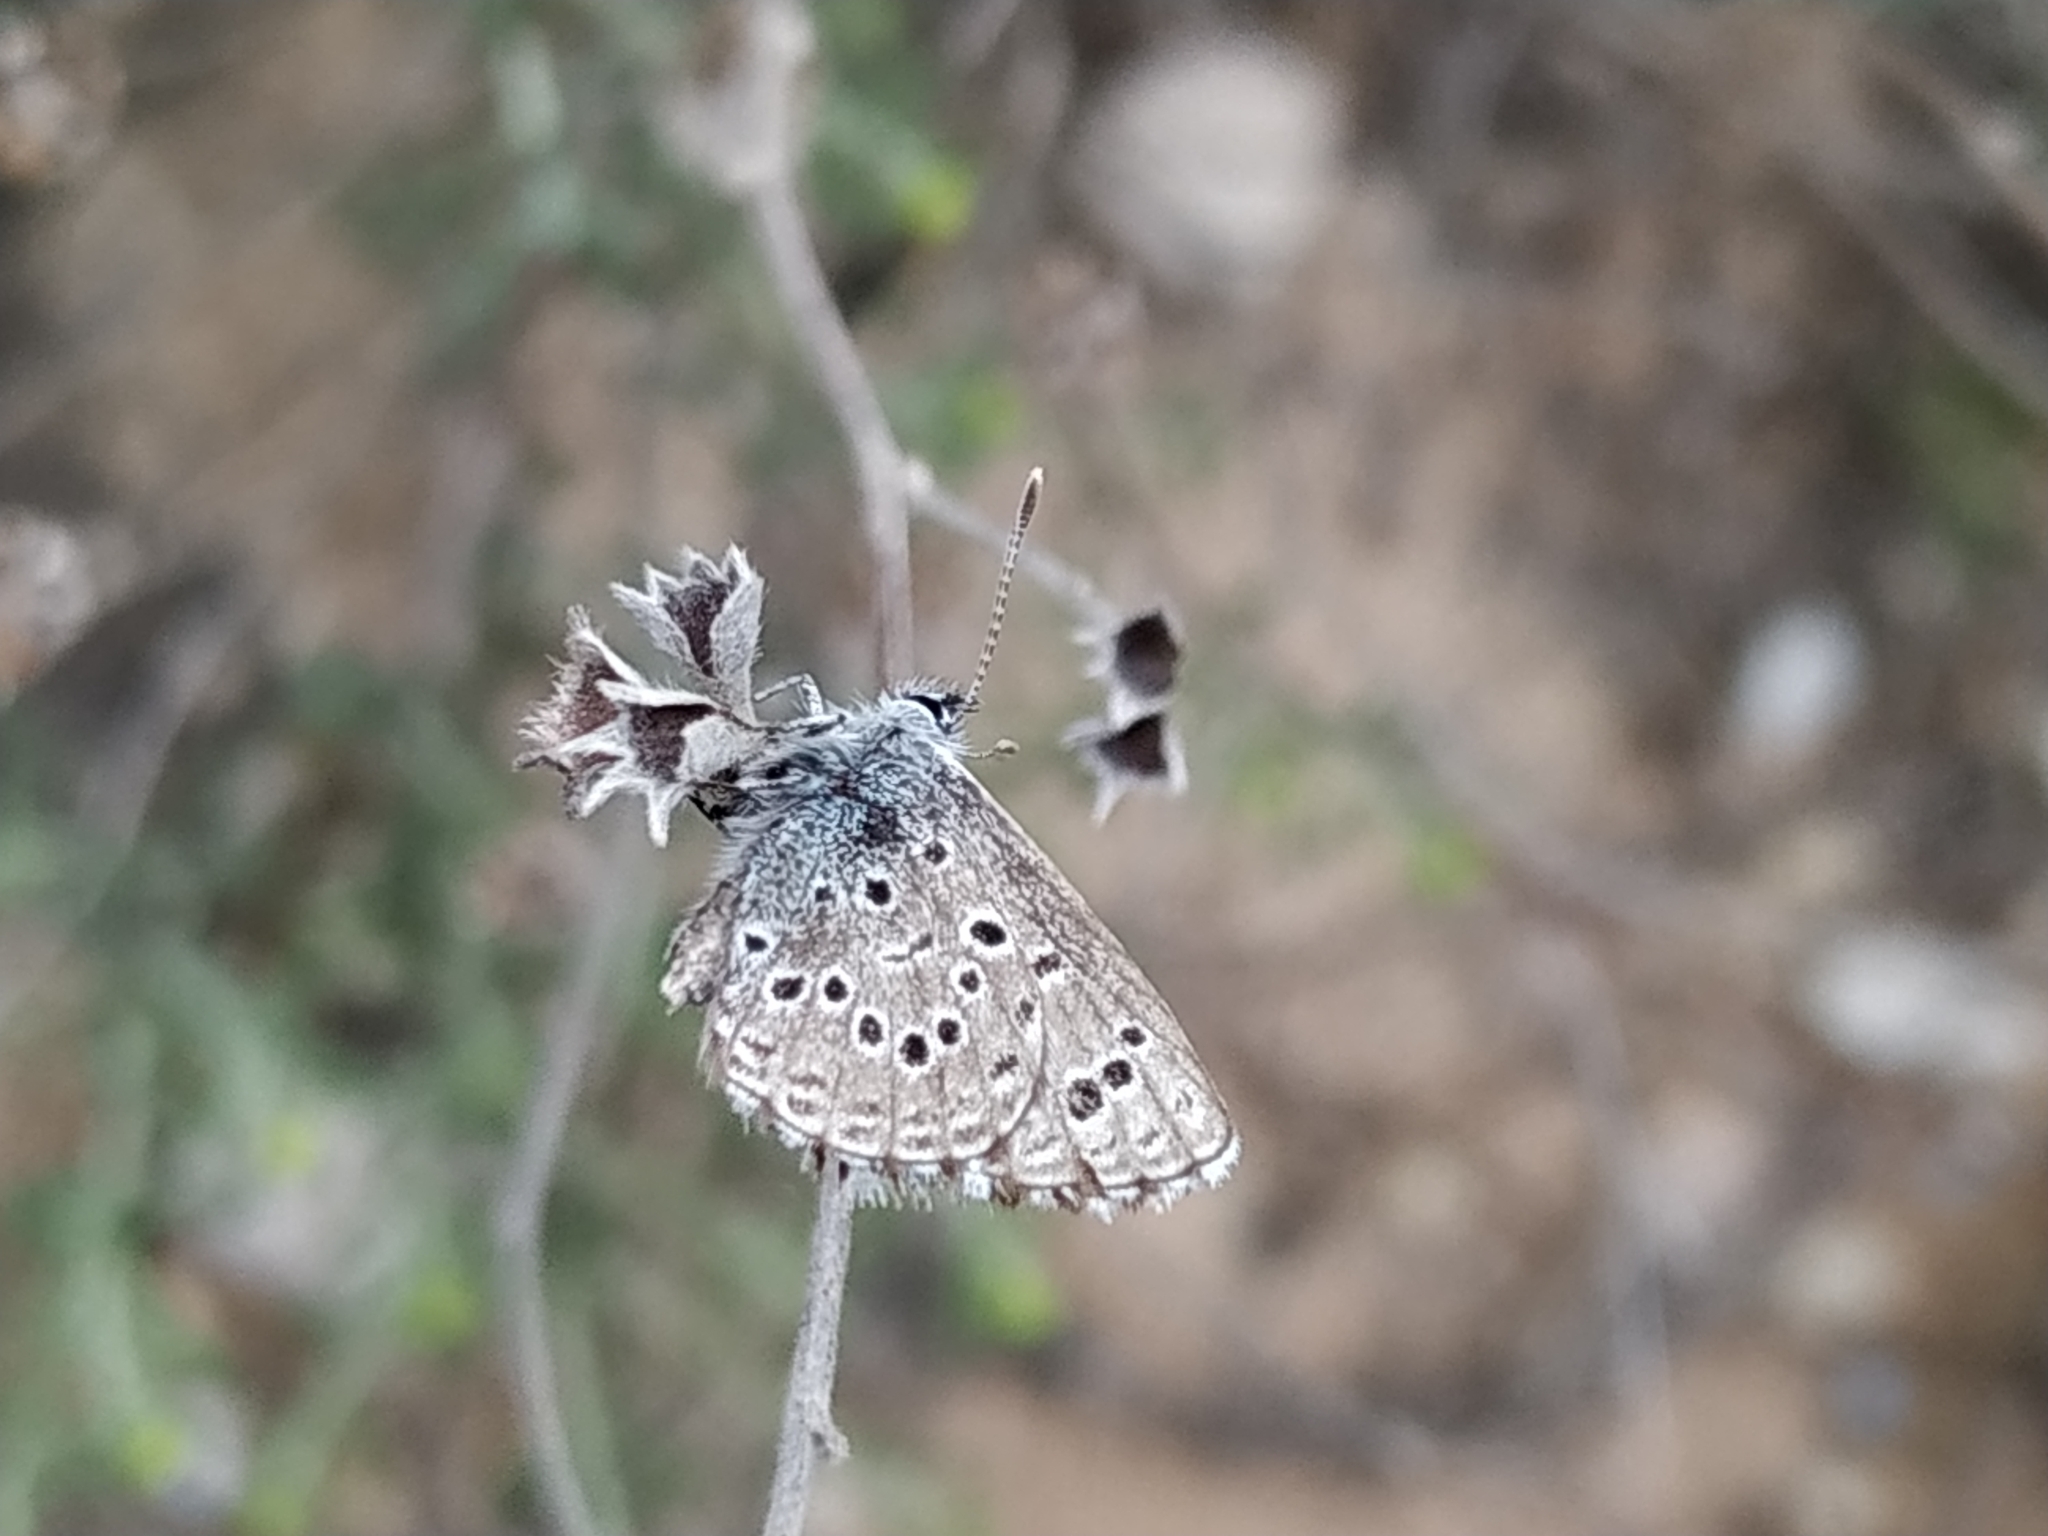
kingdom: Animalia
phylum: Arthropoda
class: Insecta
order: Lepidoptera
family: Lycaenidae
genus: Pseudophilotes
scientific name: Pseudophilotes baton
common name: Baton blue
